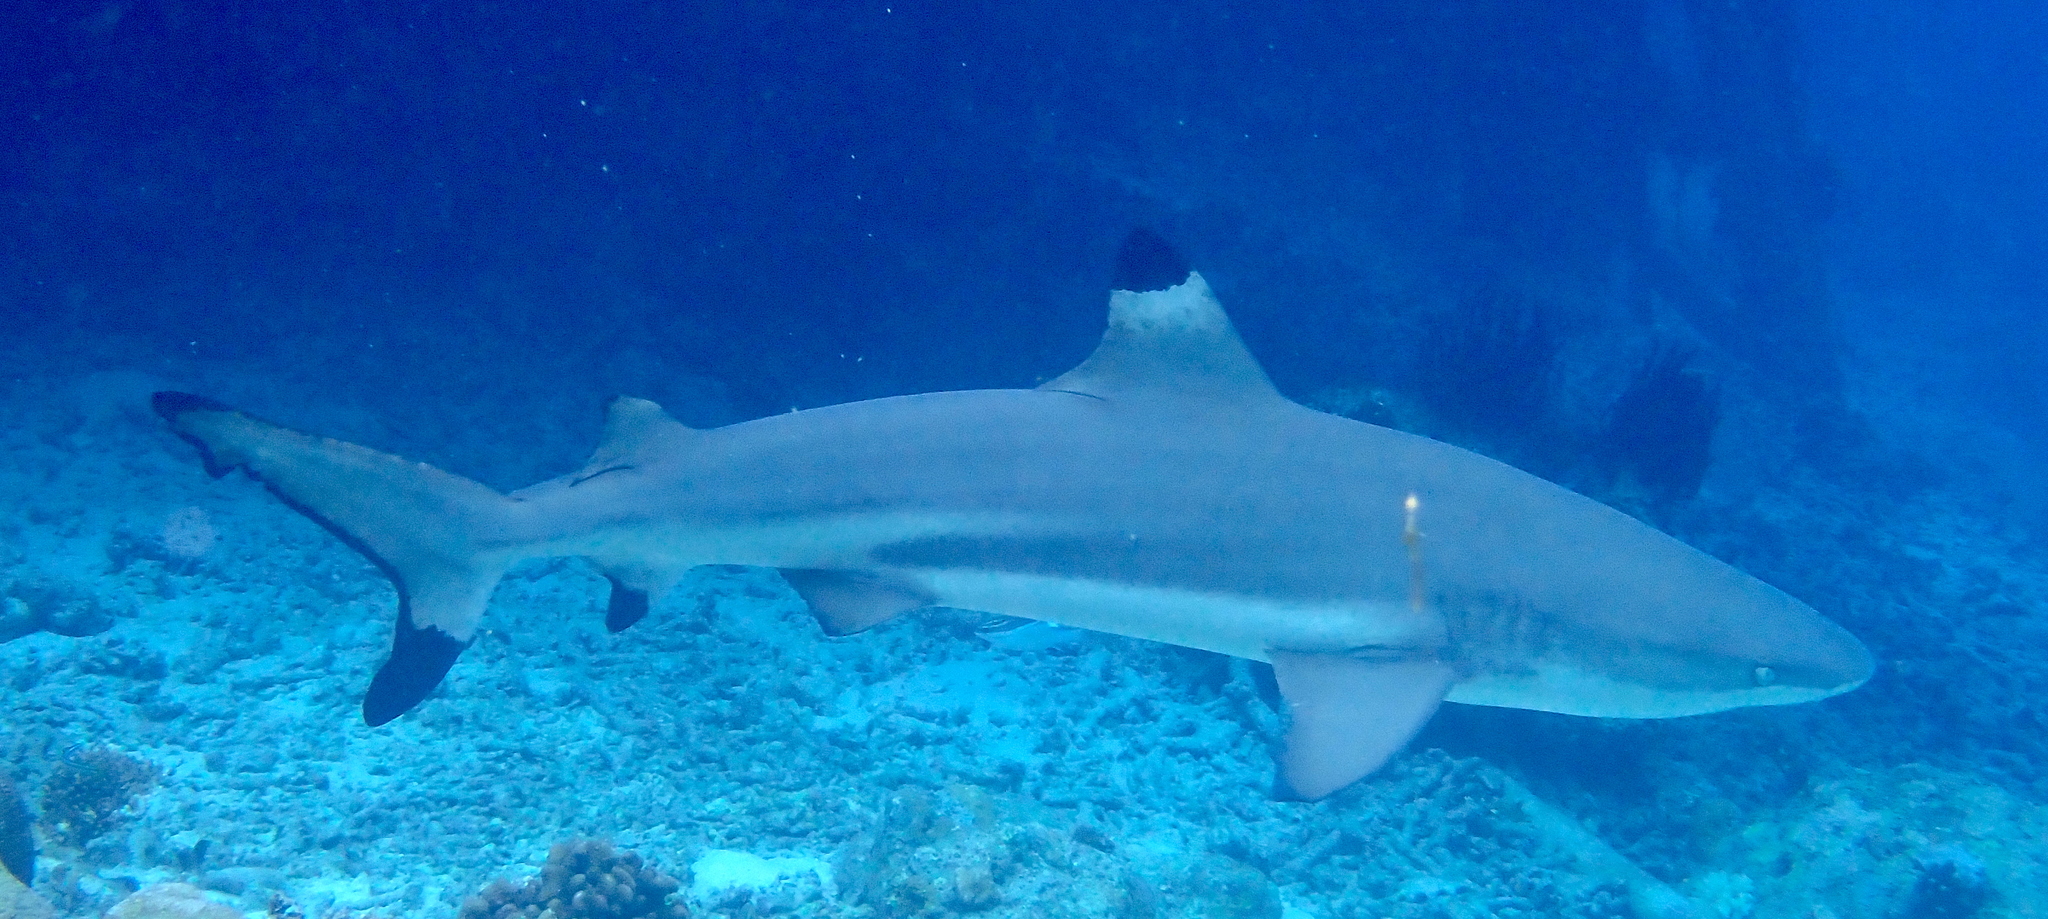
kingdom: Animalia
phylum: Chordata
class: Elasmobranchii
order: Carcharhiniformes
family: Carcharhinidae
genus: Carcharhinus
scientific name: Carcharhinus melanopterus
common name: Blacktip reef shark
